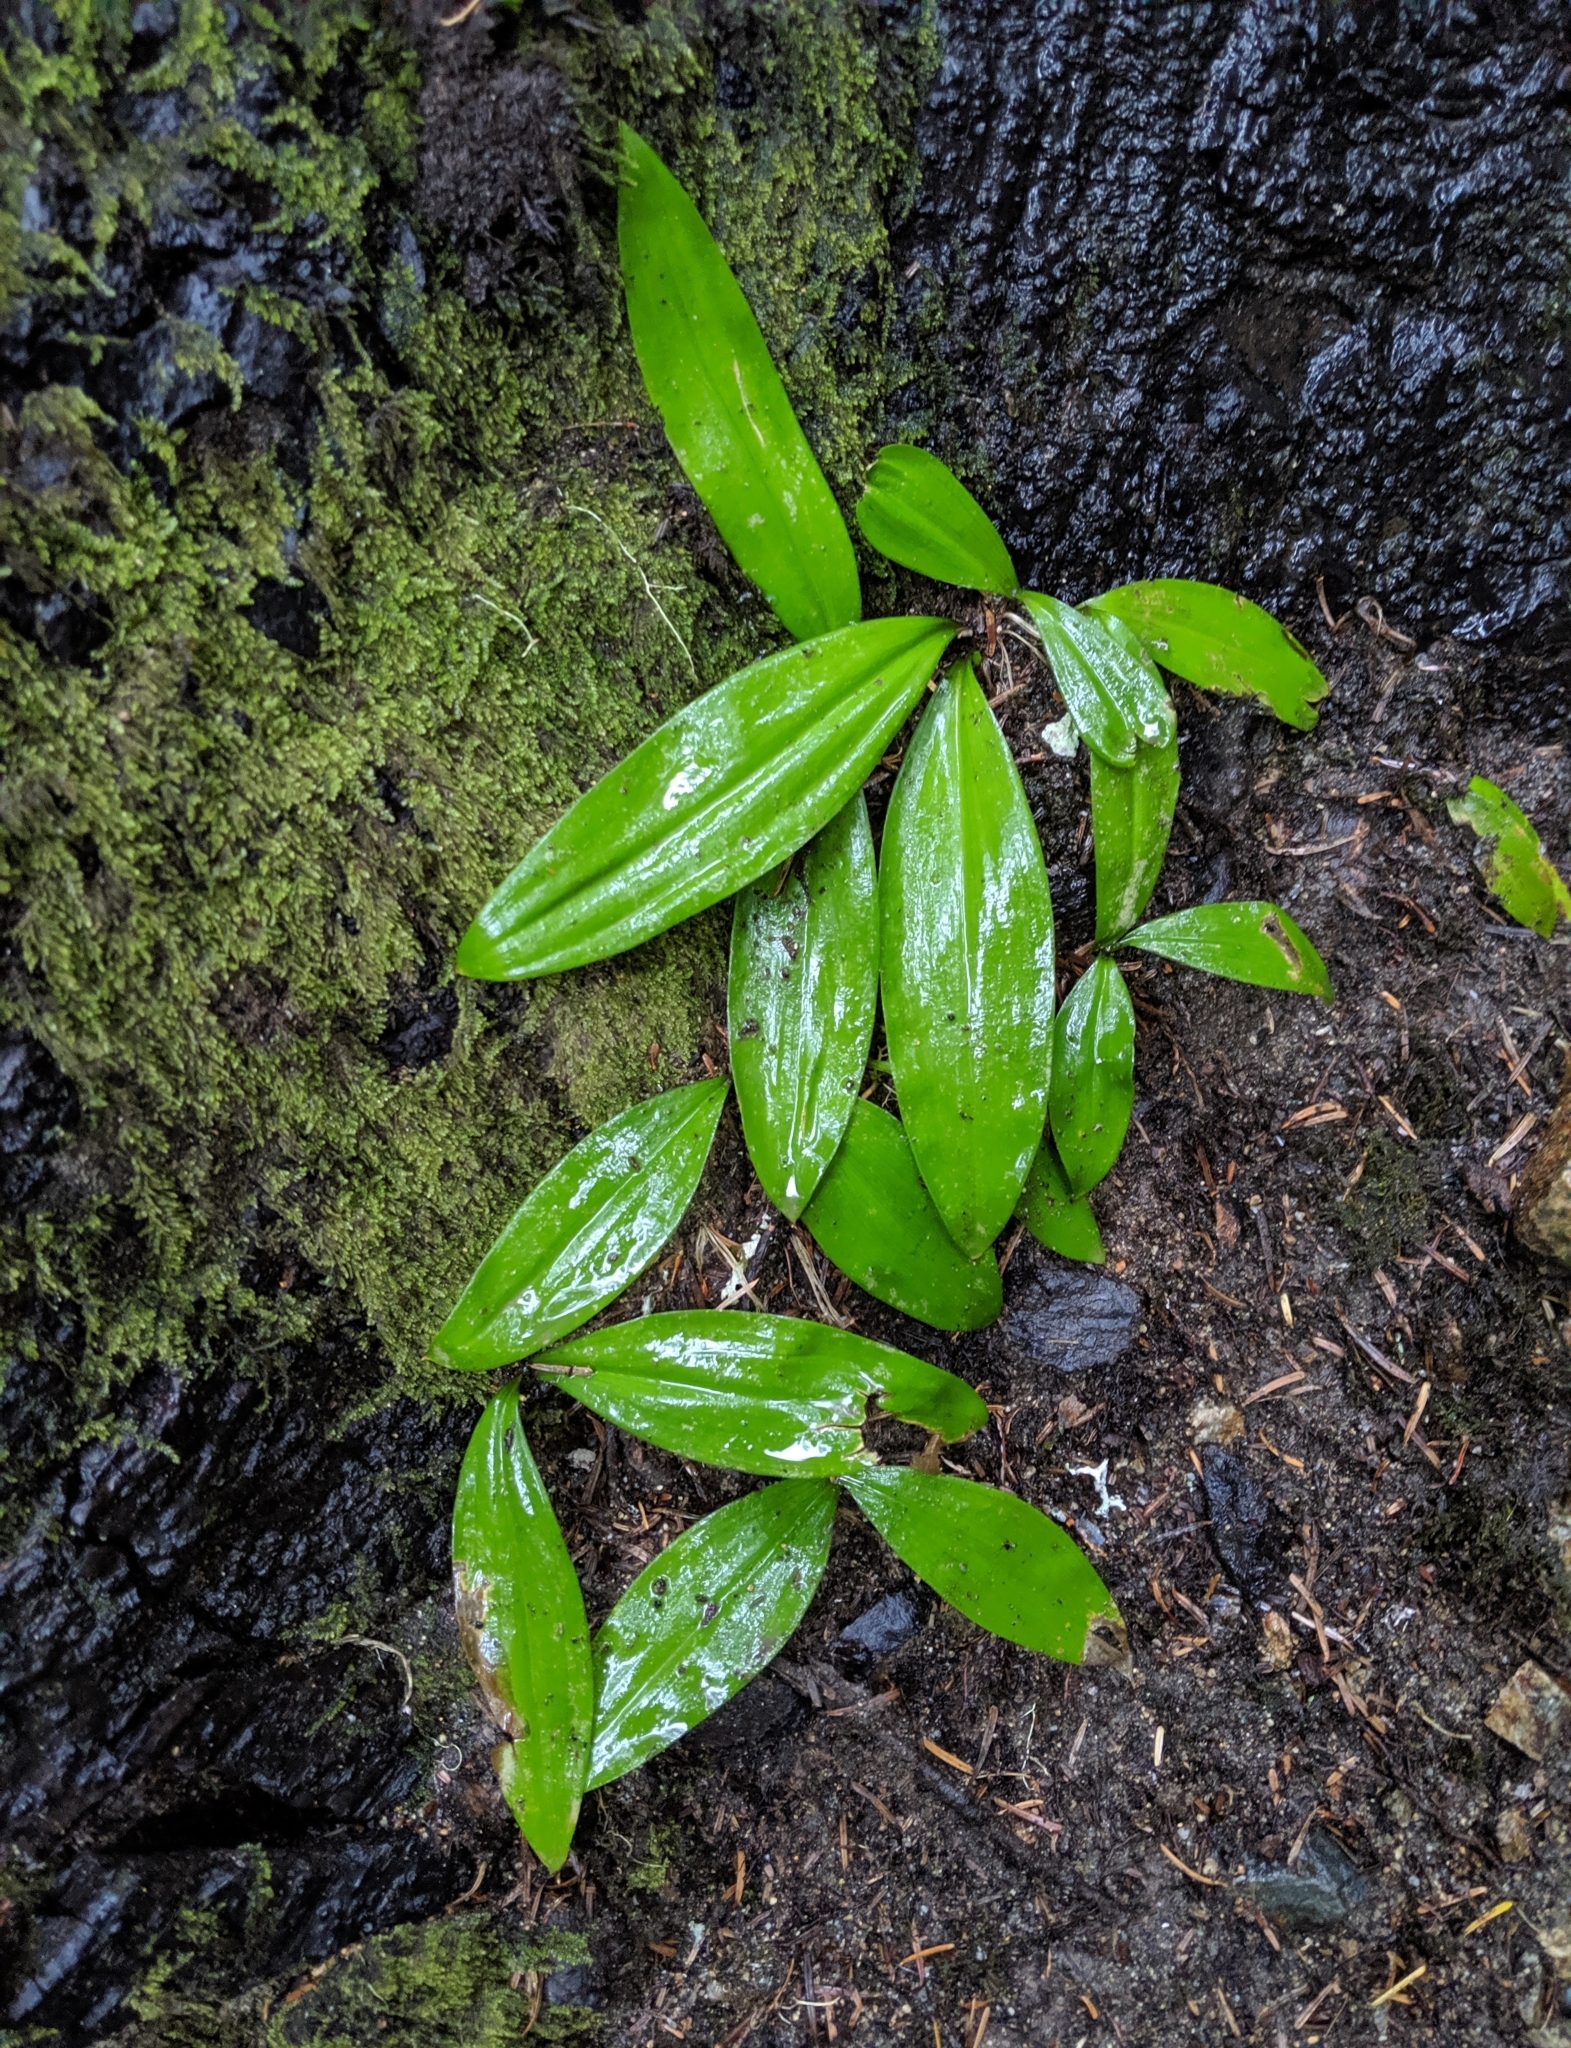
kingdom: Plantae
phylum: Tracheophyta
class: Liliopsida
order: Liliales
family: Liliaceae
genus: Clintonia
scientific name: Clintonia uniflora
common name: Queen's cup
